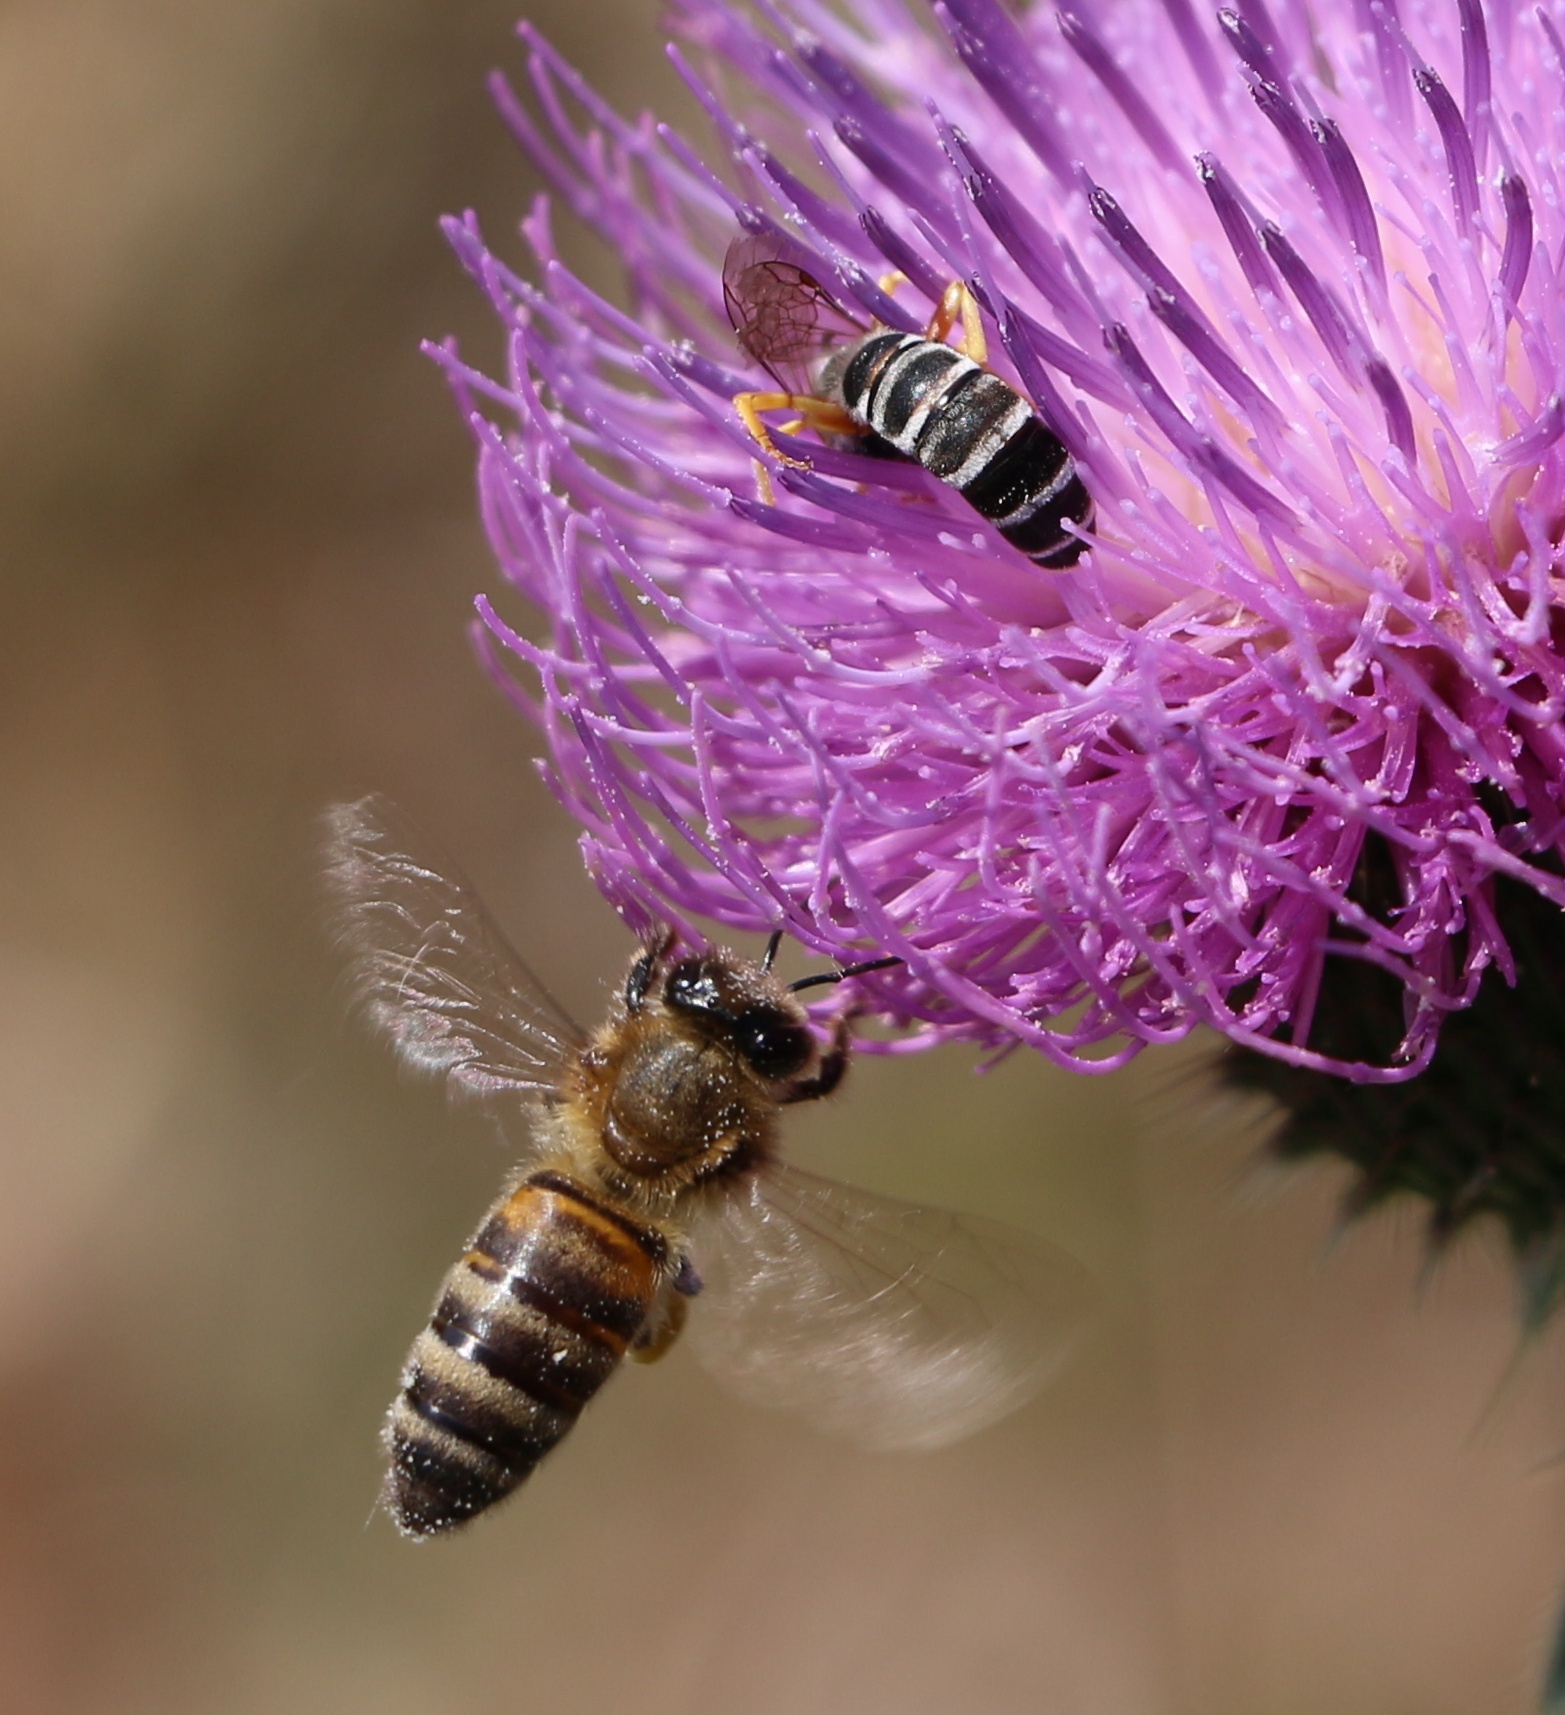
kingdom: Animalia
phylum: Arthropoda
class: Insecta
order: Hymenoptera
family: Apidae
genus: Apis
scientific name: Apis mellifera
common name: Honey bee
